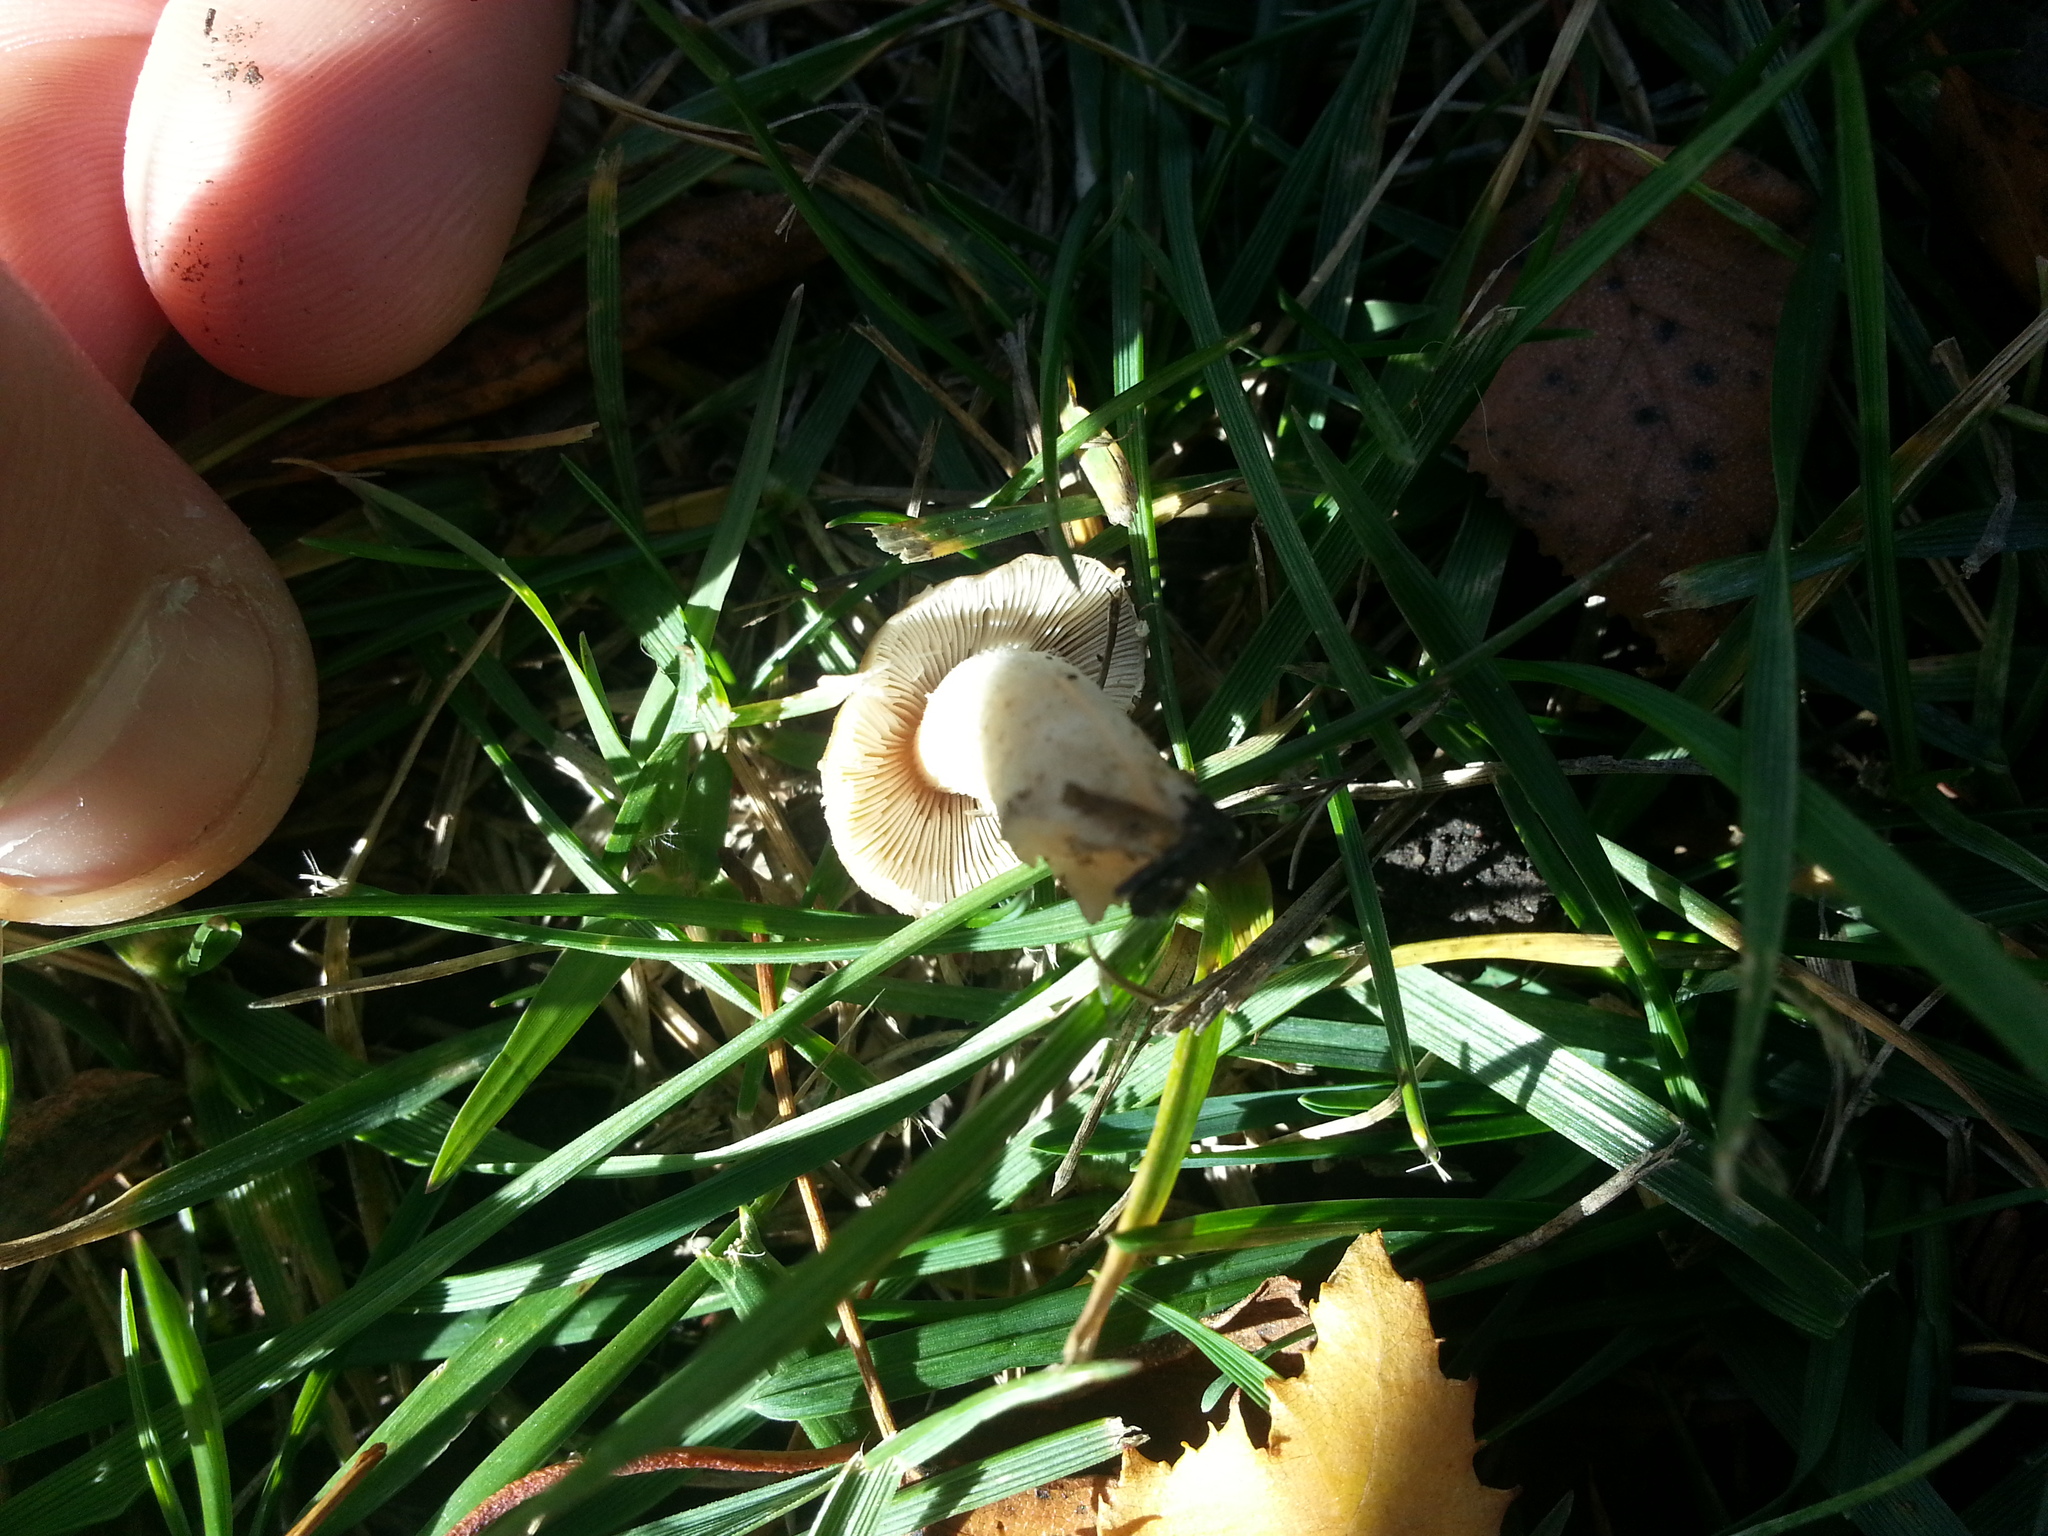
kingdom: Fungi
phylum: Basidiomycota
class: Agaricomycetes
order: Agaricales
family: Psathyrellaceae
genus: Candolleomyces
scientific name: Candolleomyces candolleanus
